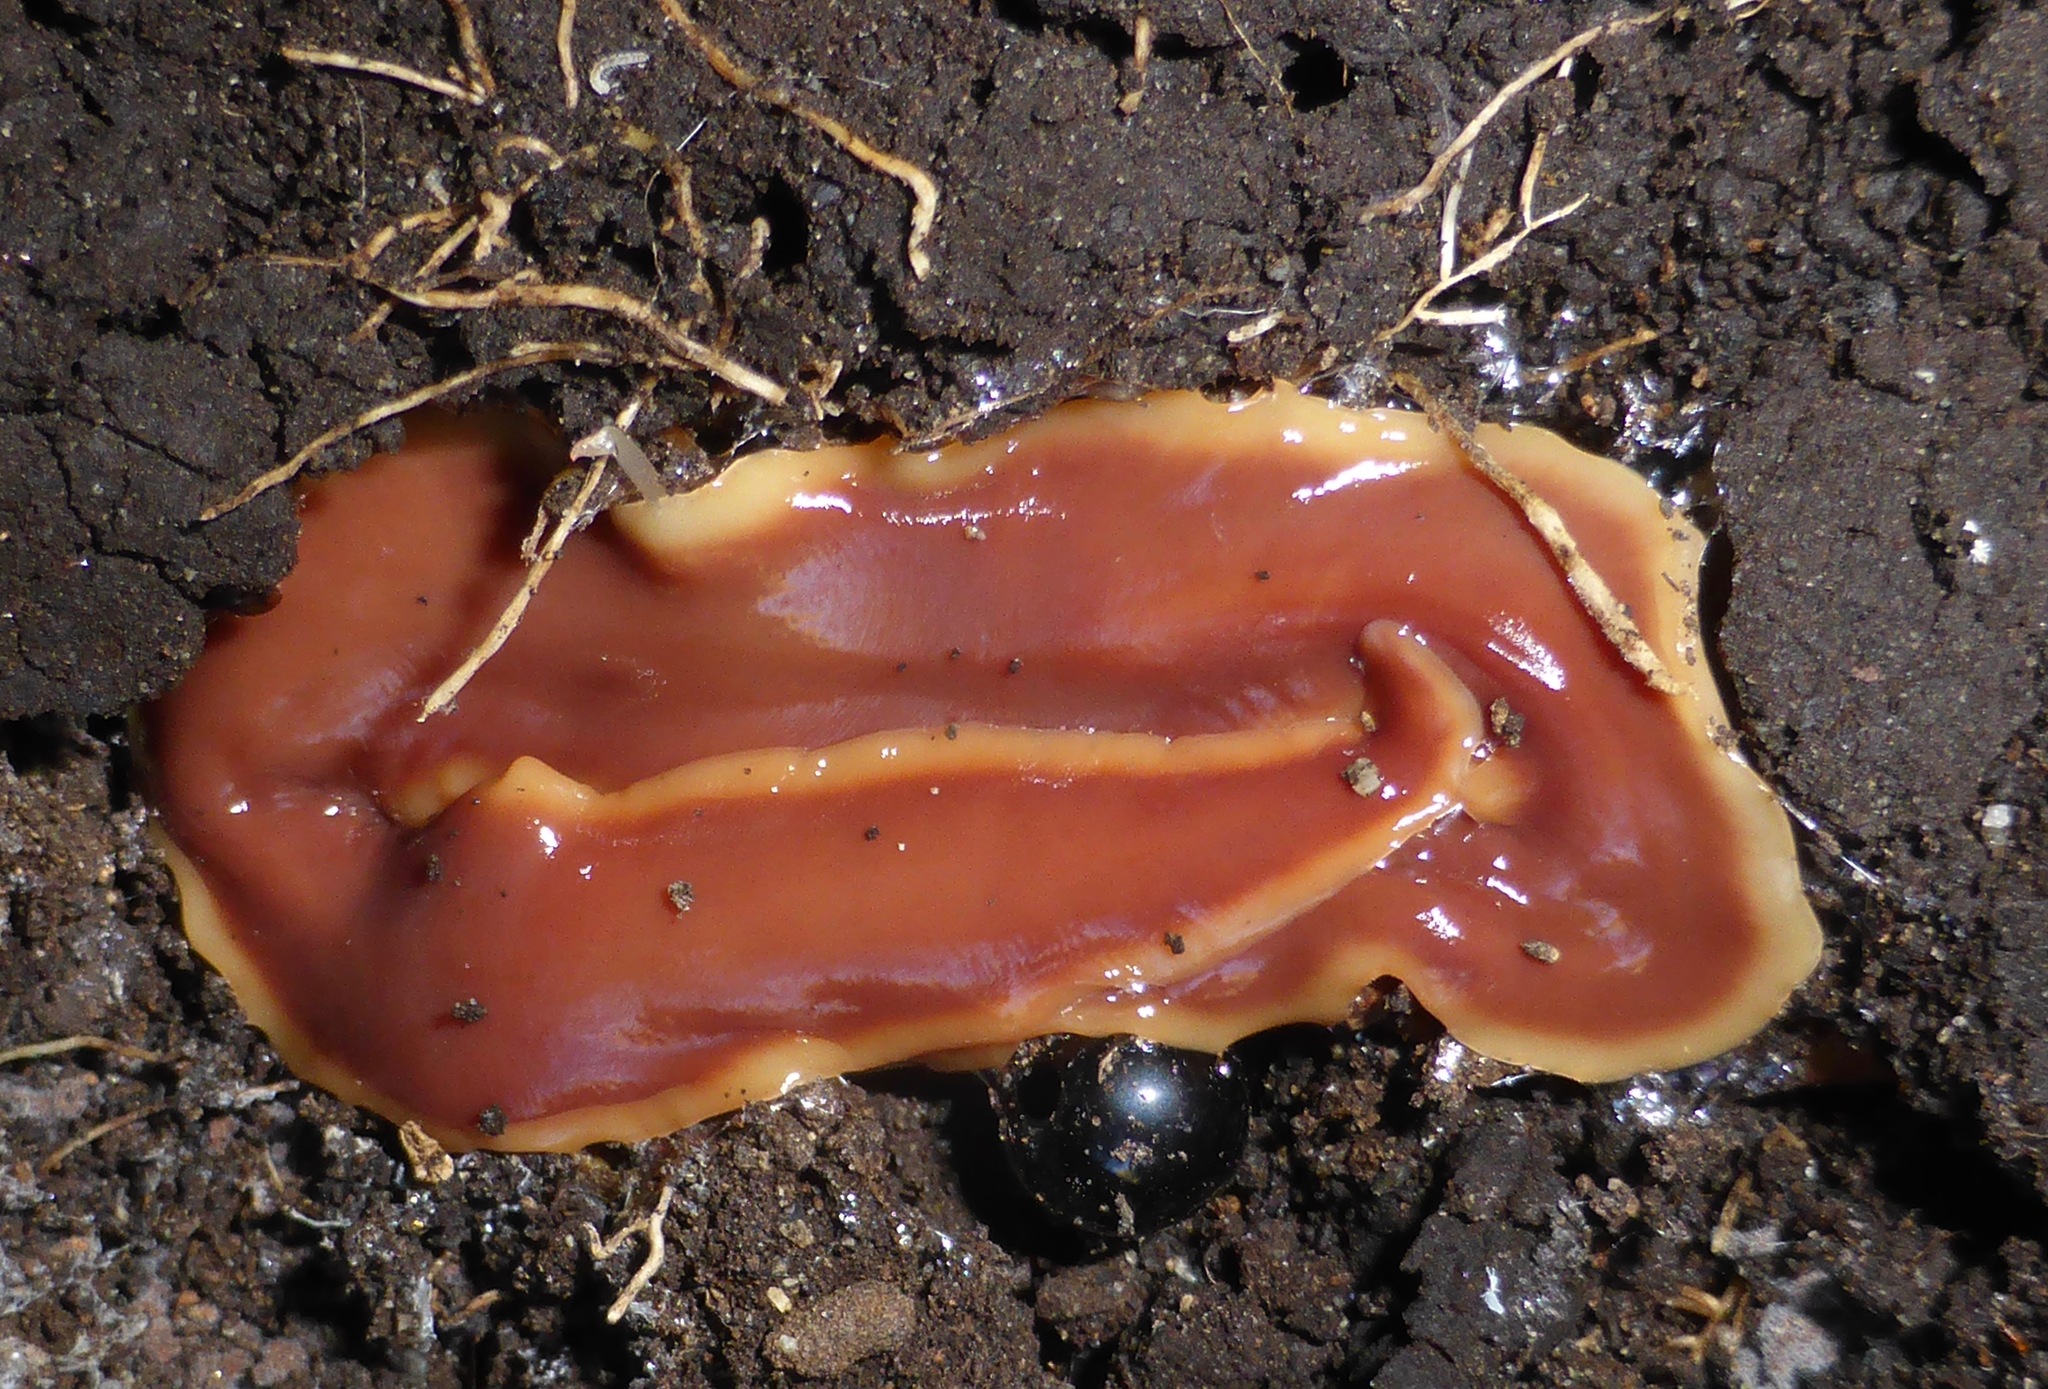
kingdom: Animalia
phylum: Platyhelminthes
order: Tricladida
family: Geoplanidae
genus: Arthurdendyus
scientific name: Arthurdendyus testaceus
